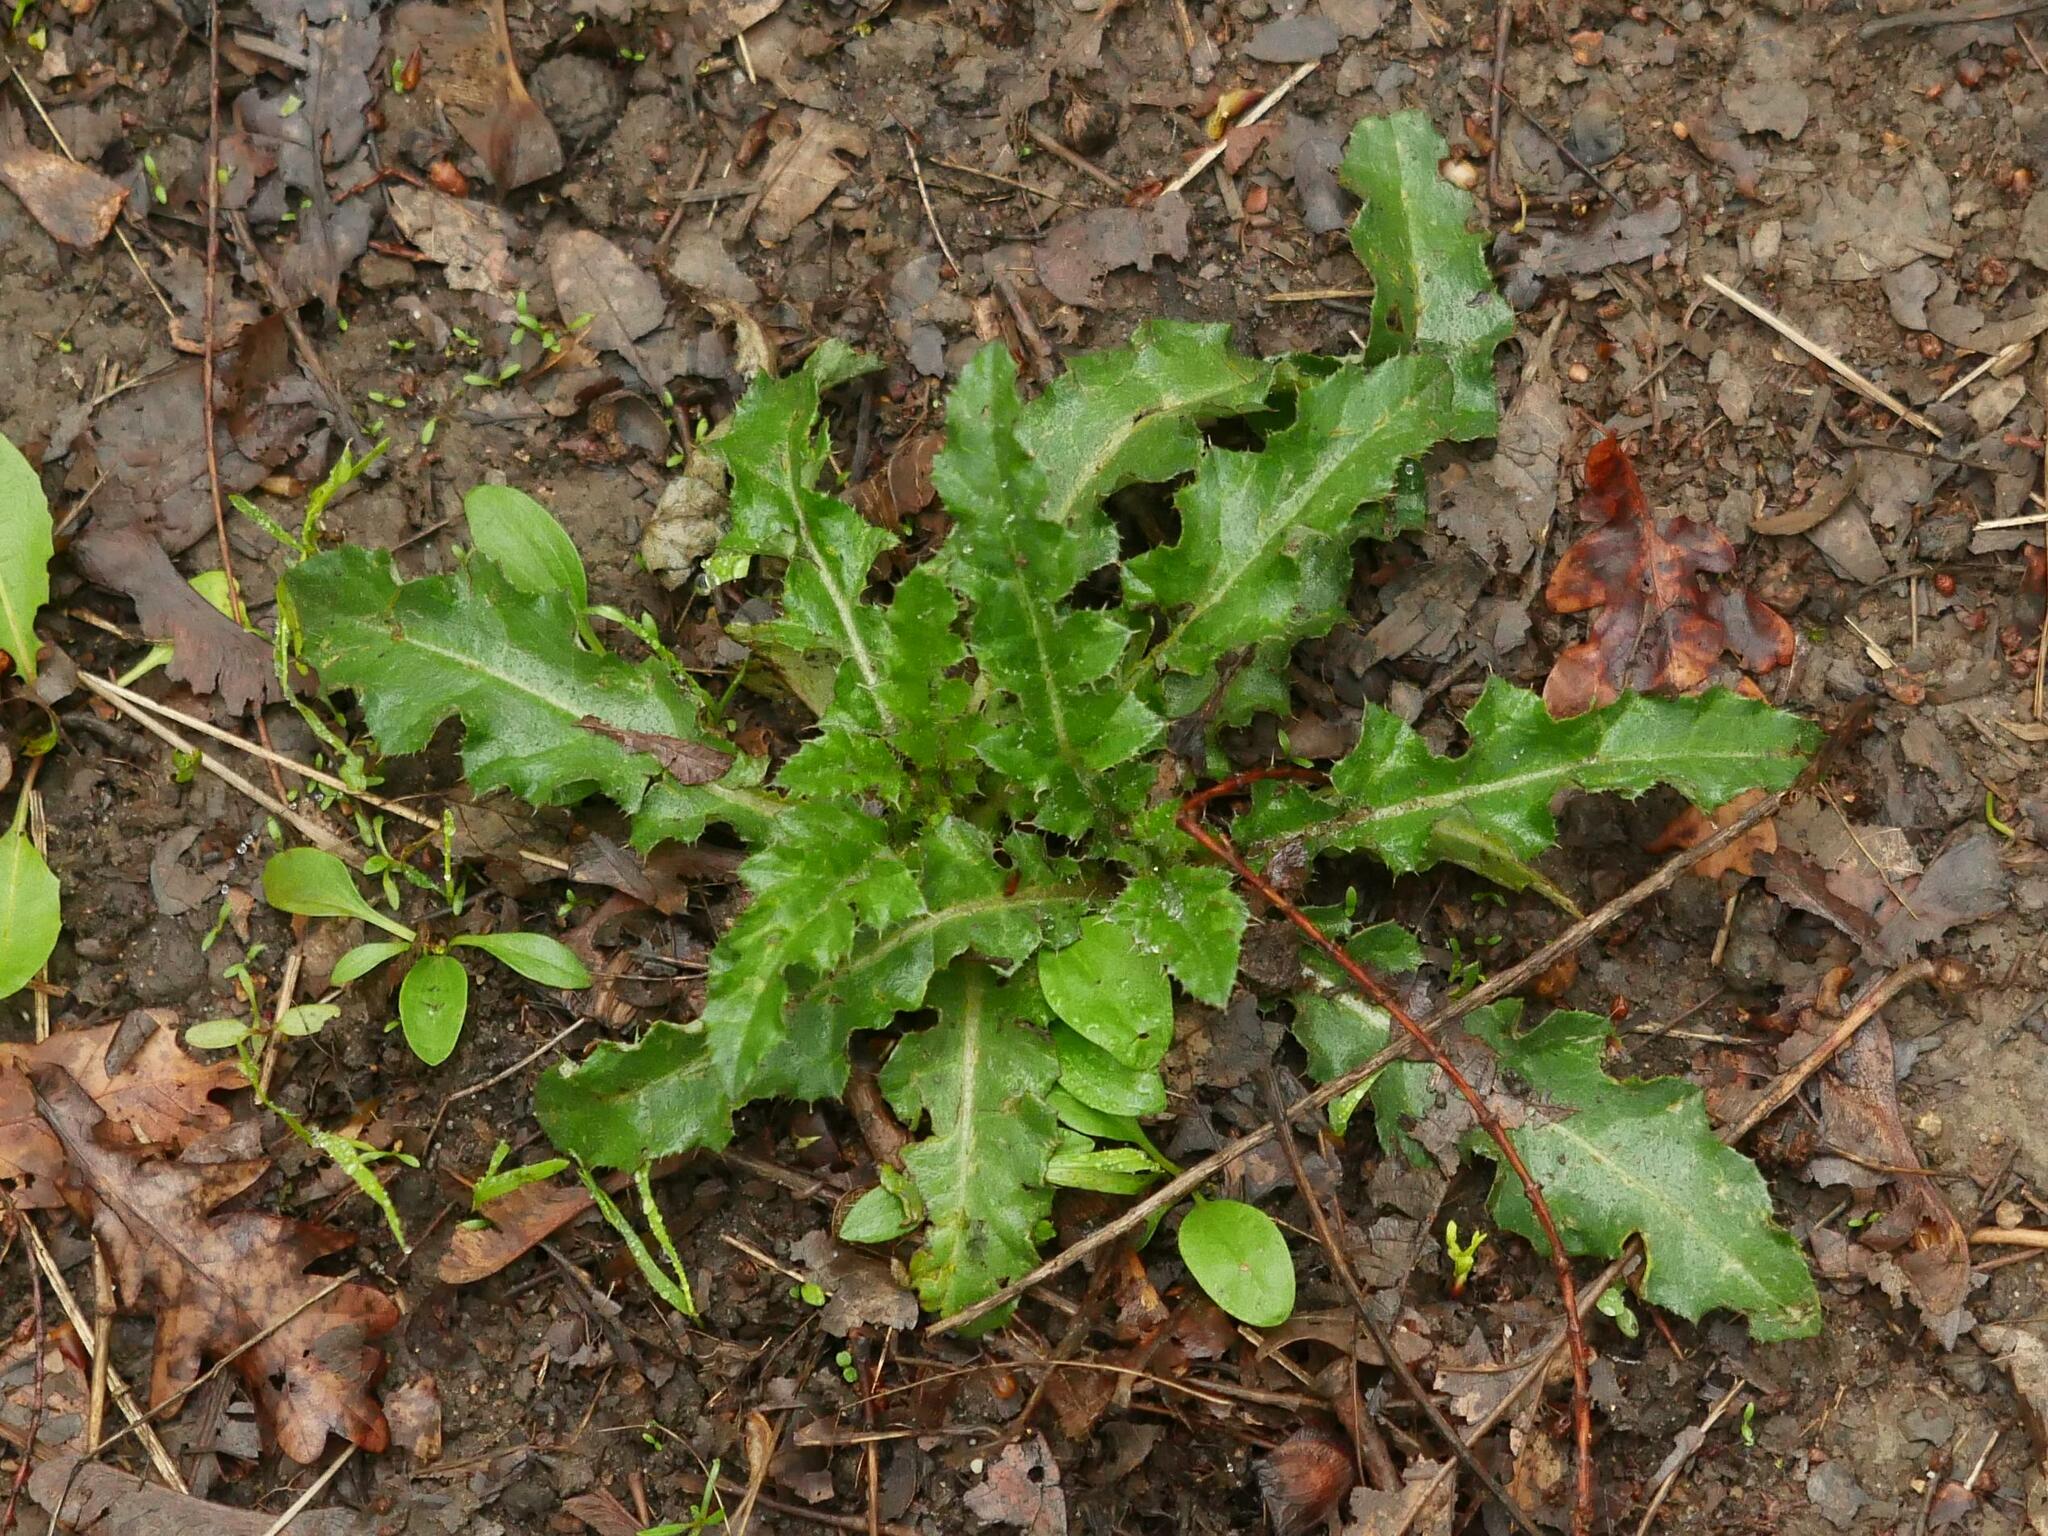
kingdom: Plantae
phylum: Tracheophyta
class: Magnoliopsida
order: Asterales
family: Asteraceae
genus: Sonchus
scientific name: Sonchus asper
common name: Prickly sow-thistle
